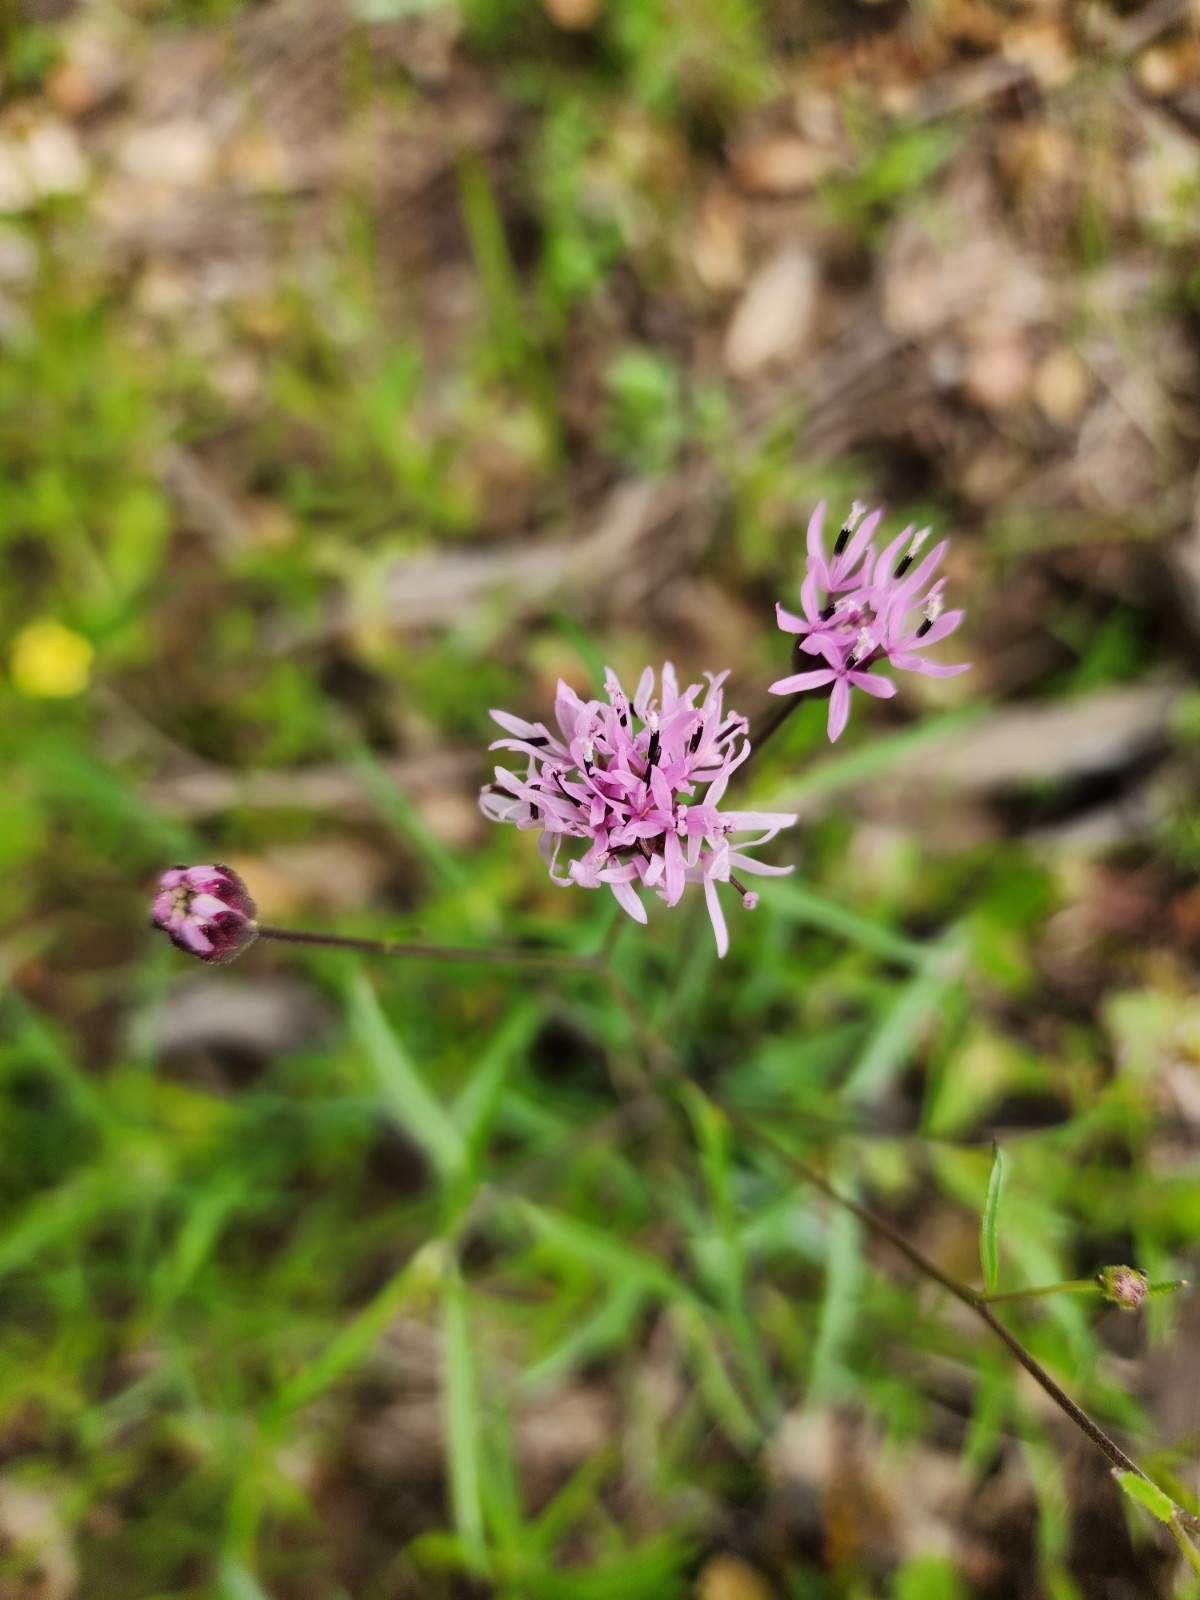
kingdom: Plantae
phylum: Tracheophyta
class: Magnoliopsida
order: Asterales
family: Asteraceae
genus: Palafoxia
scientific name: Palafoxia rosea
